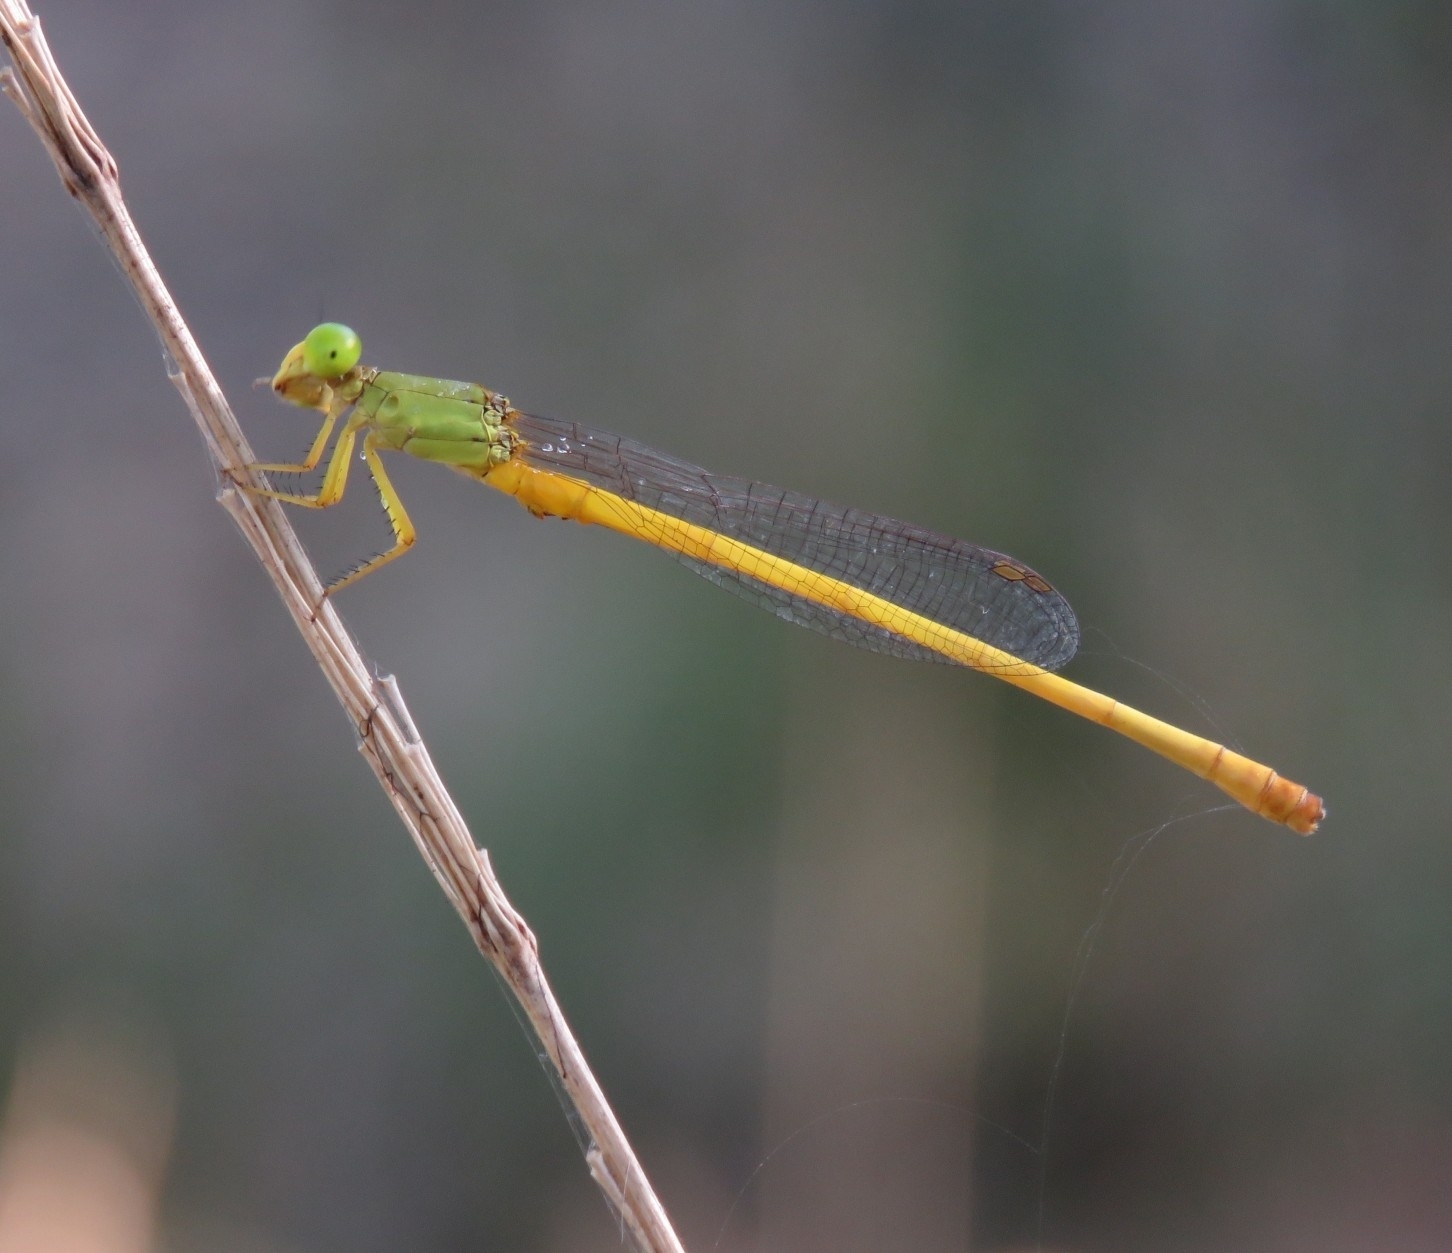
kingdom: Animalia
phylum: Arthropoda
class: Insecta
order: Odonata
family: Coenagrionidae
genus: Ceriagrion
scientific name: Ceriagrion coromandelianum
